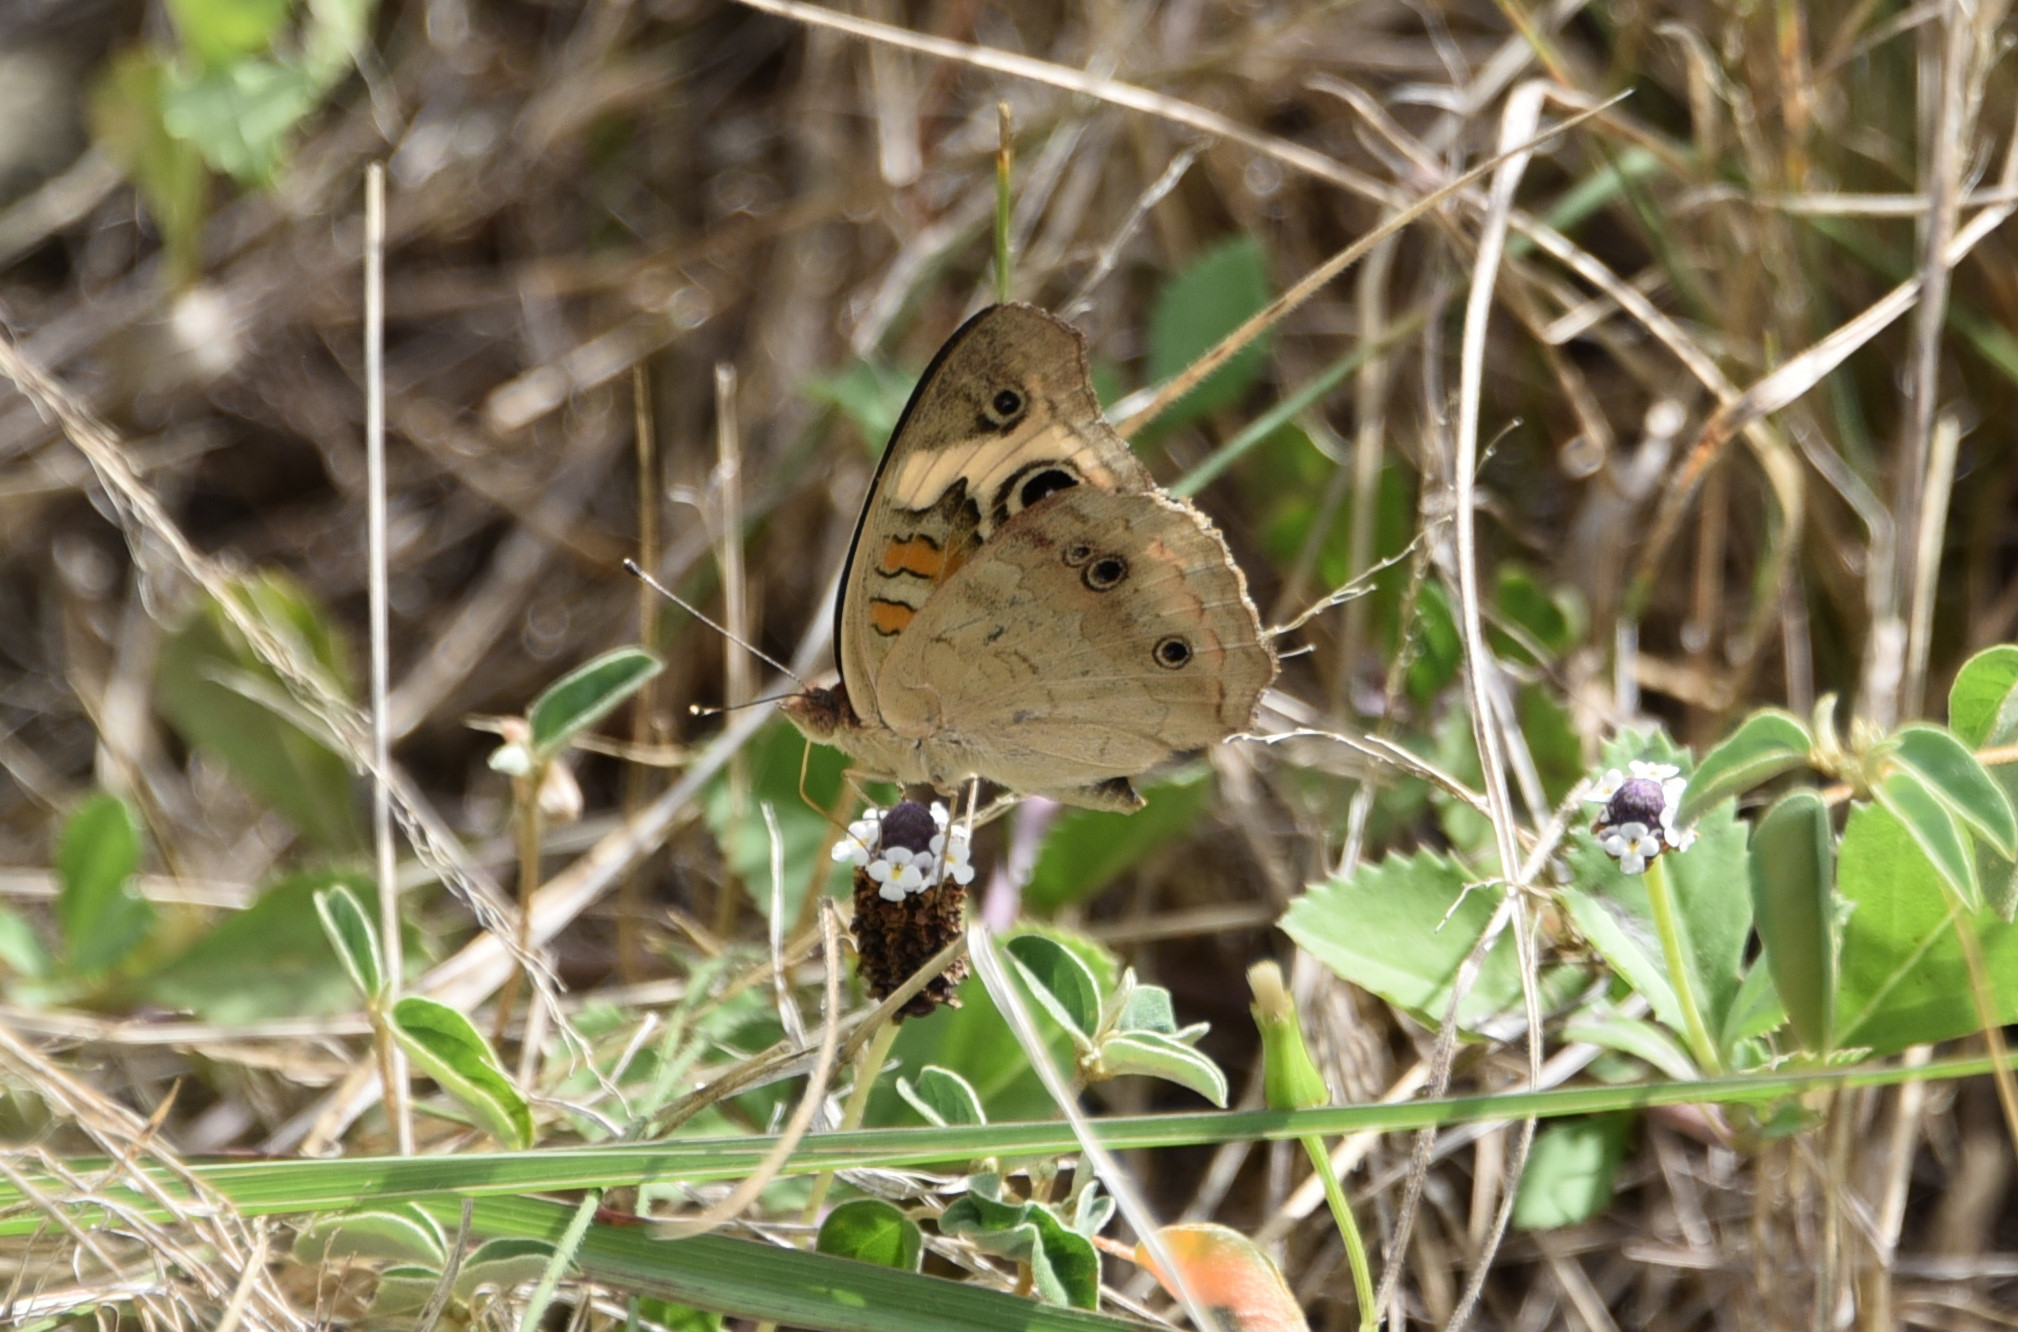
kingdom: Animalia
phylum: Arthropoda
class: Insecta
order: Lepidoptera
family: Nymphalidae
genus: Junonia
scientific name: Junonia coenia
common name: Common buckeye
